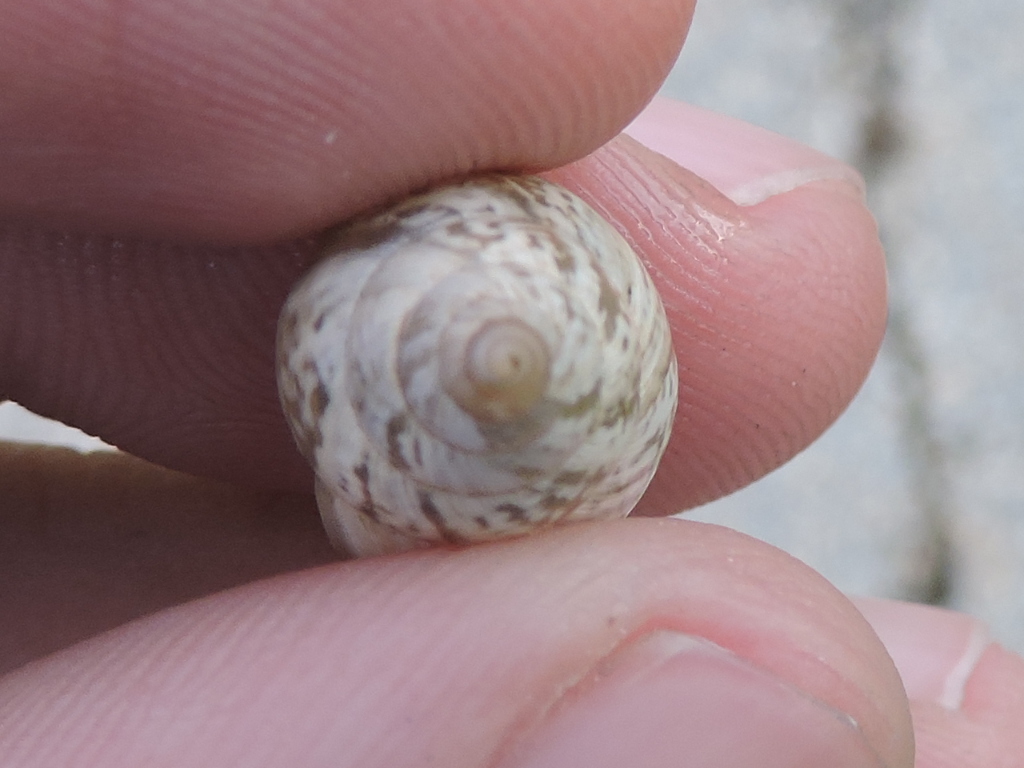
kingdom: Animalia
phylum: Mollusca
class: Gastropoda
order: Stylommatophora
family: Bulimulidae
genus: Rabdotus
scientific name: Rabdotus dealbatus
